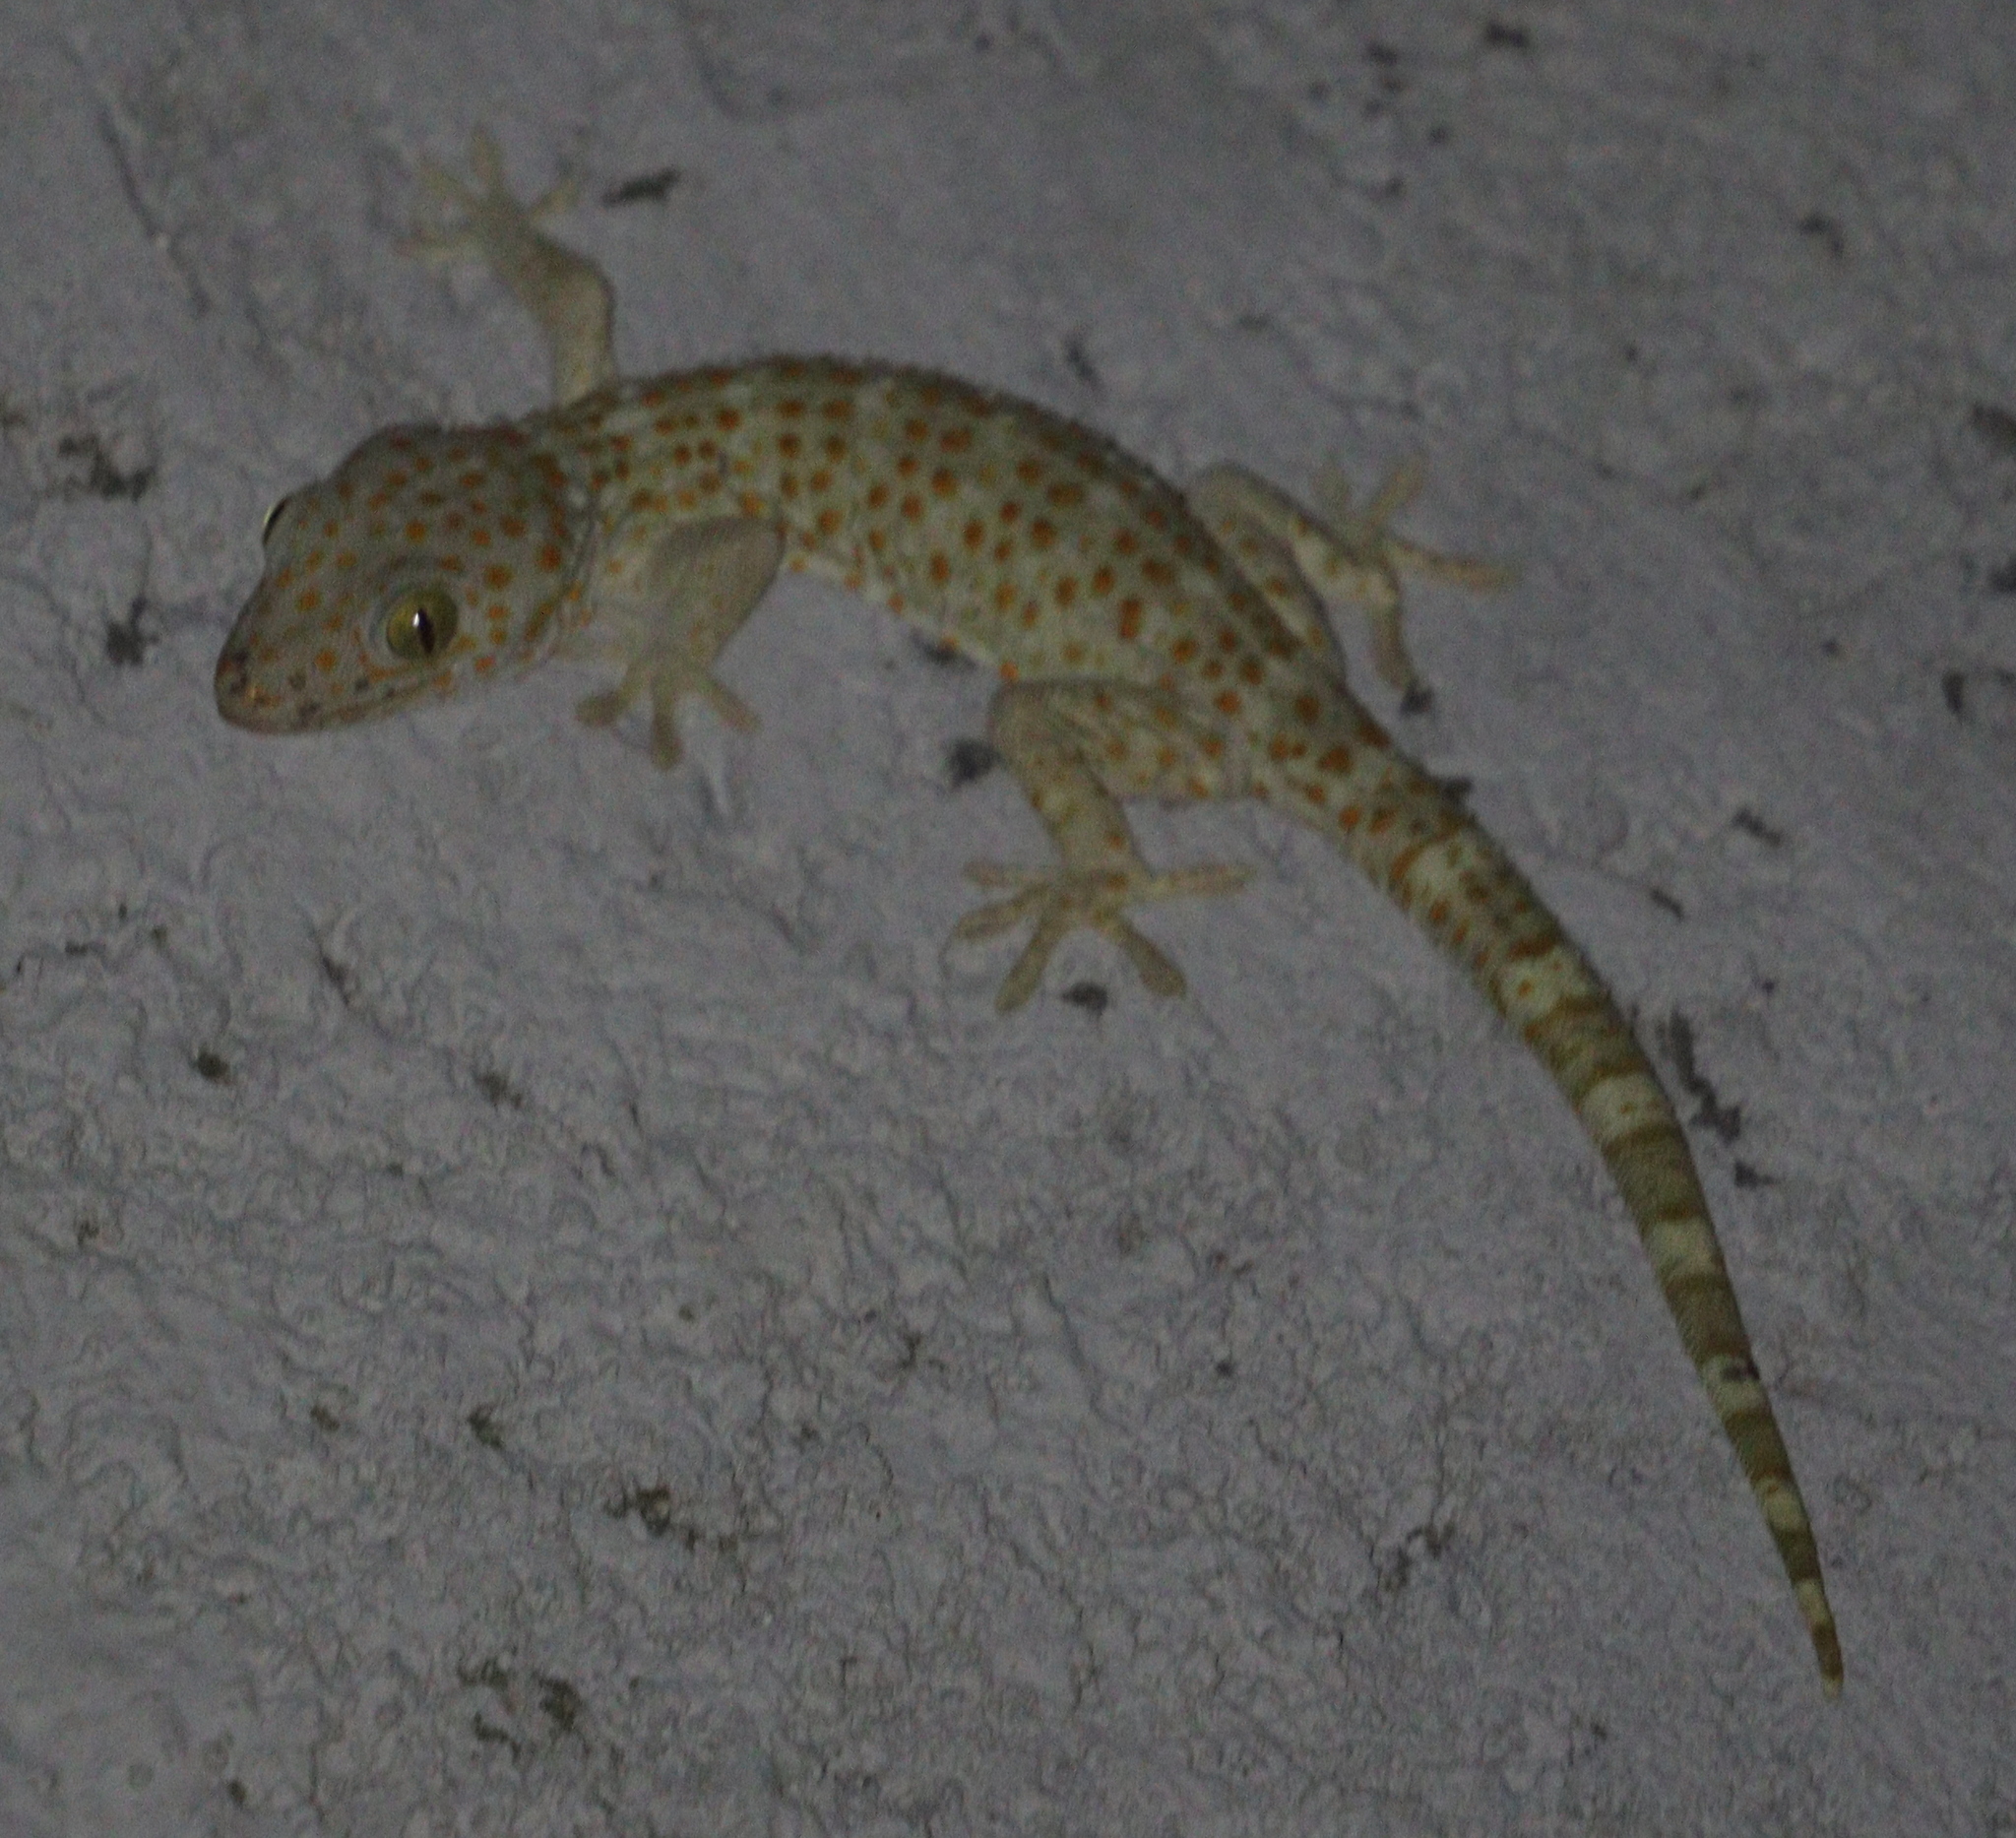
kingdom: Animalia
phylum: Chordata
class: Squamata
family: Gekkonidae
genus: Gekko
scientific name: Gekko gecko
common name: Tokay gecko
